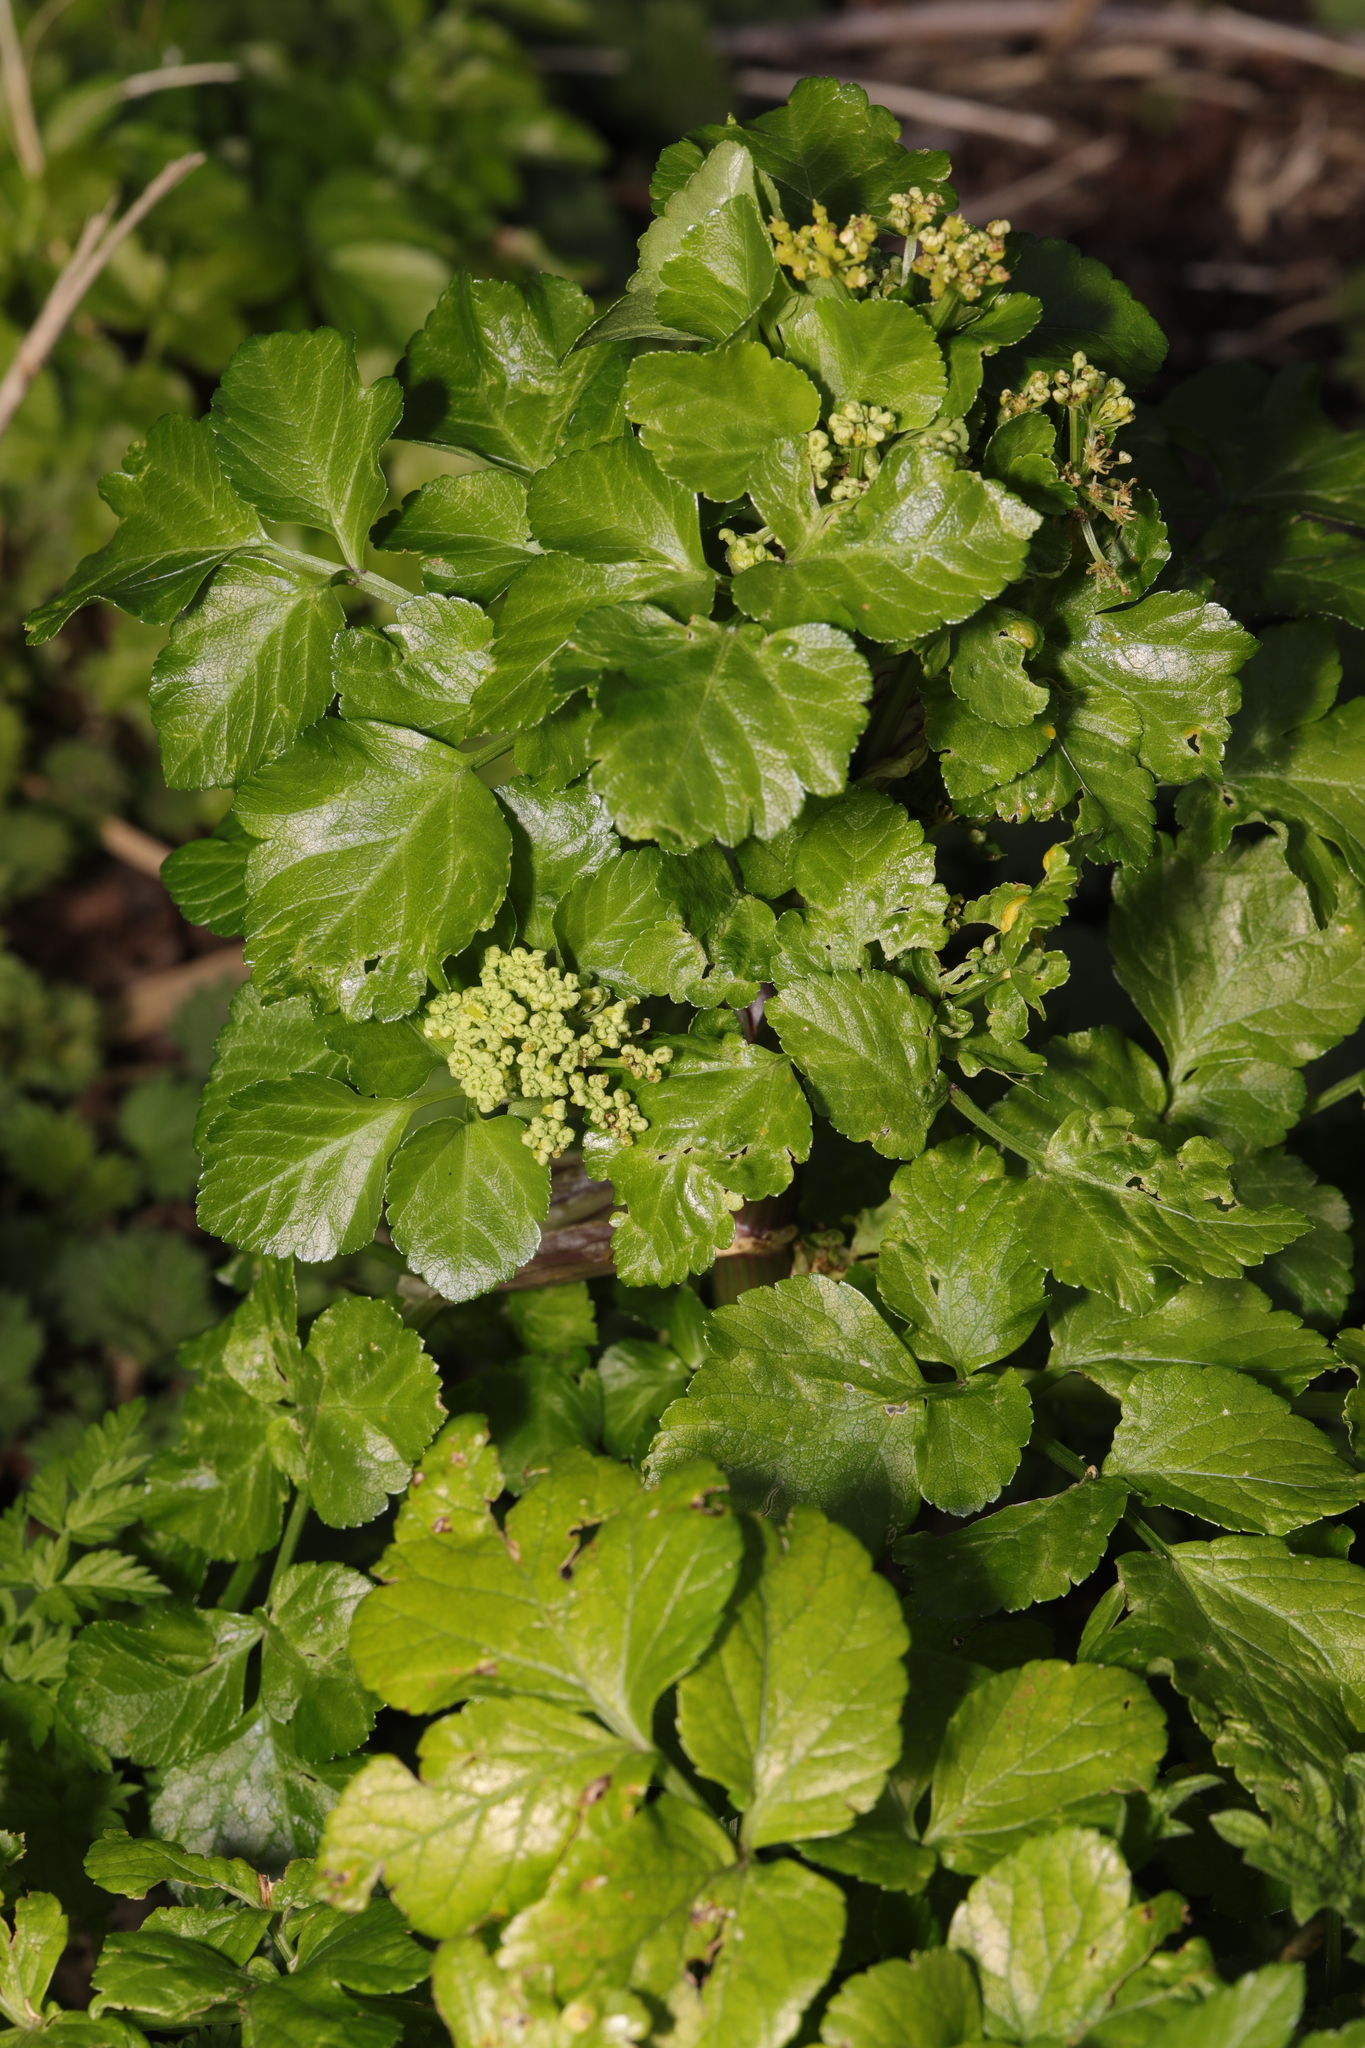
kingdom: Plantae
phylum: Tracheophyta
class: Magnoliopsida
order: Apiales
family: Apiaceae
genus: Smyrnium
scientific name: Smyrnium olusatrum
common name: Alexanders
